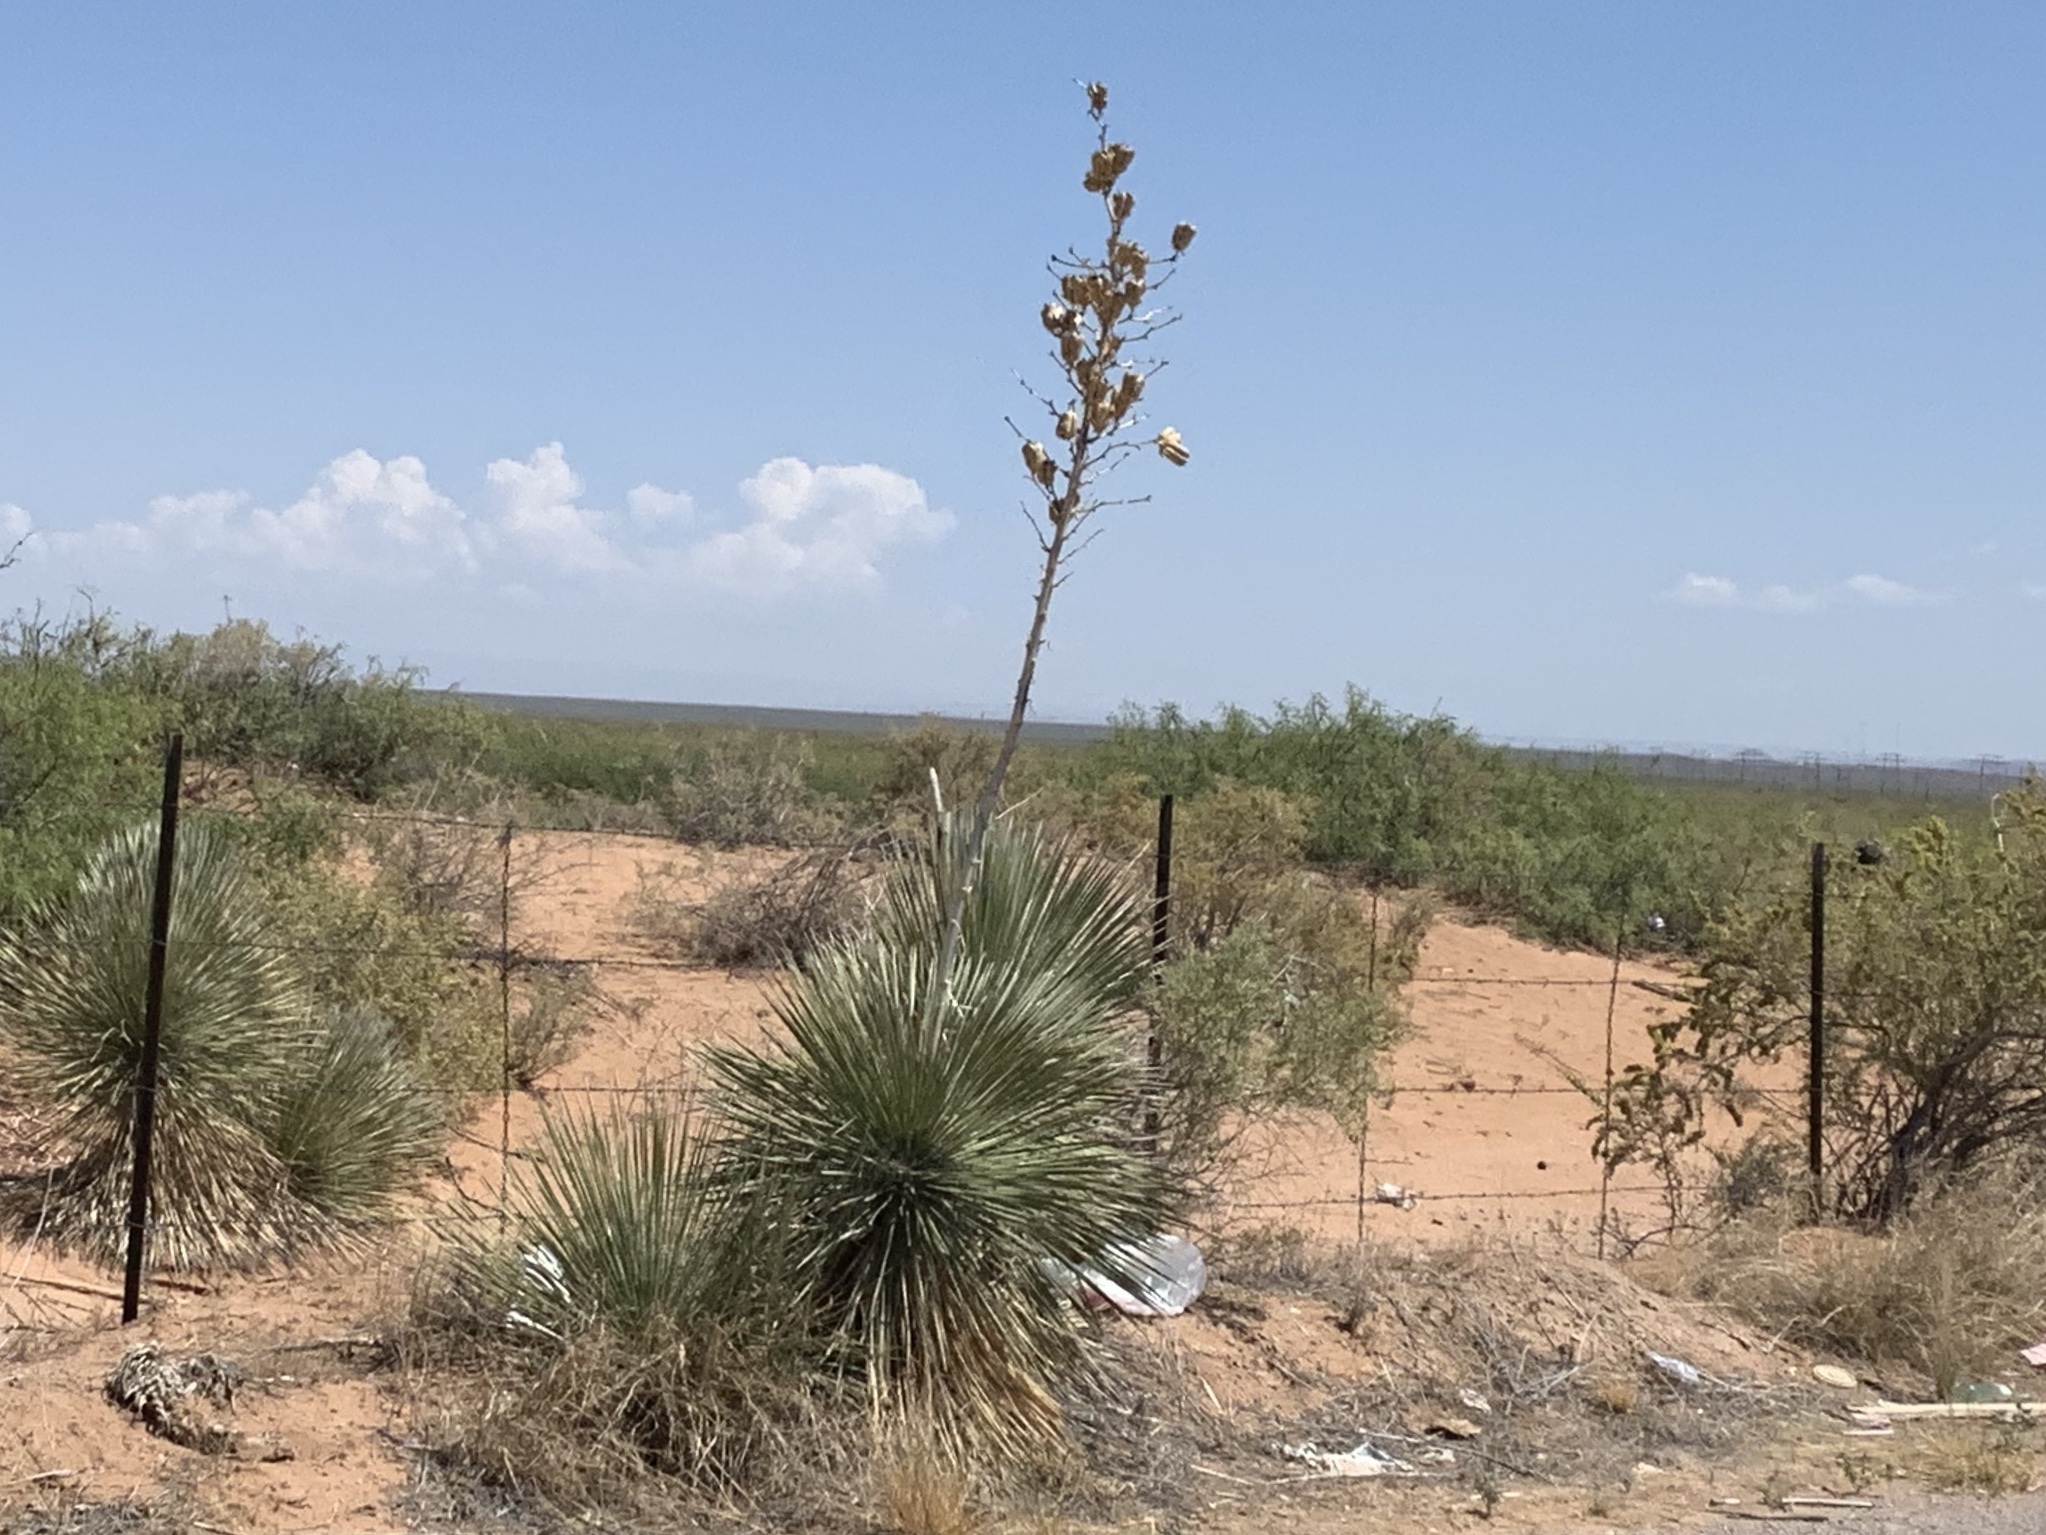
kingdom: Plantae
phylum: Tracheophyta
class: Liliopsida
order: Asparagales
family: Asparagaceae
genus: Yucca
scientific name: Yucca elata
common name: Palmella
